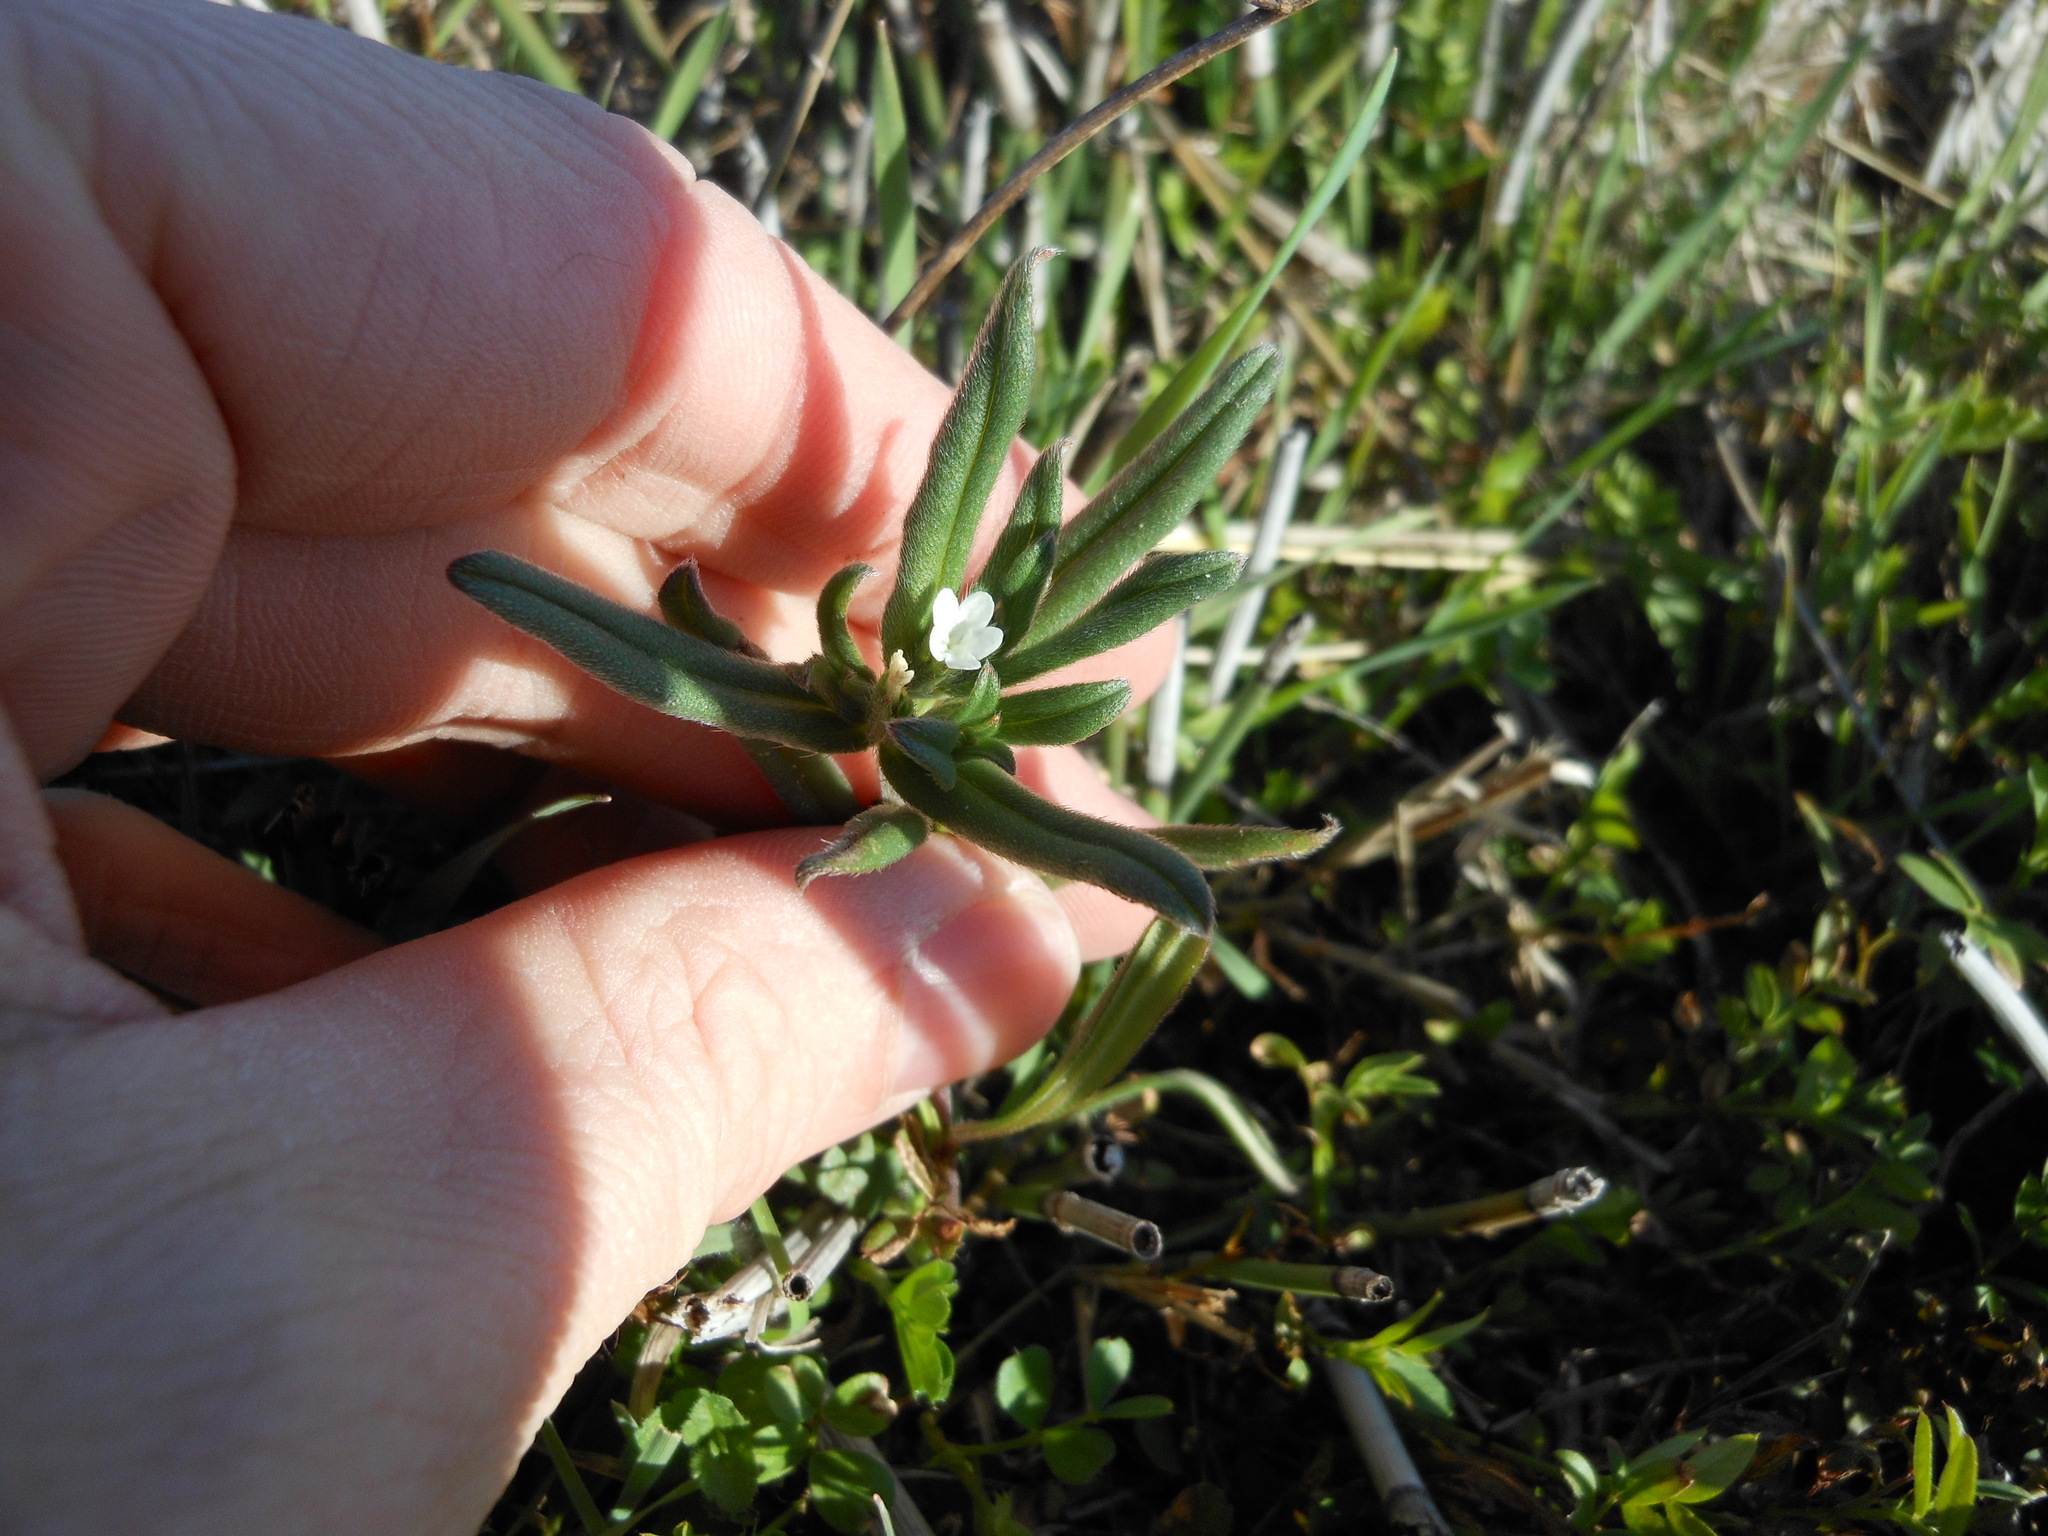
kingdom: Plantae
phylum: Tracheophyta
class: Magnoliopsida
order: Boraginales
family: Boraginaceae
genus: Buglossoides
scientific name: Buglossoides arvensis
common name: Corn gromwell
